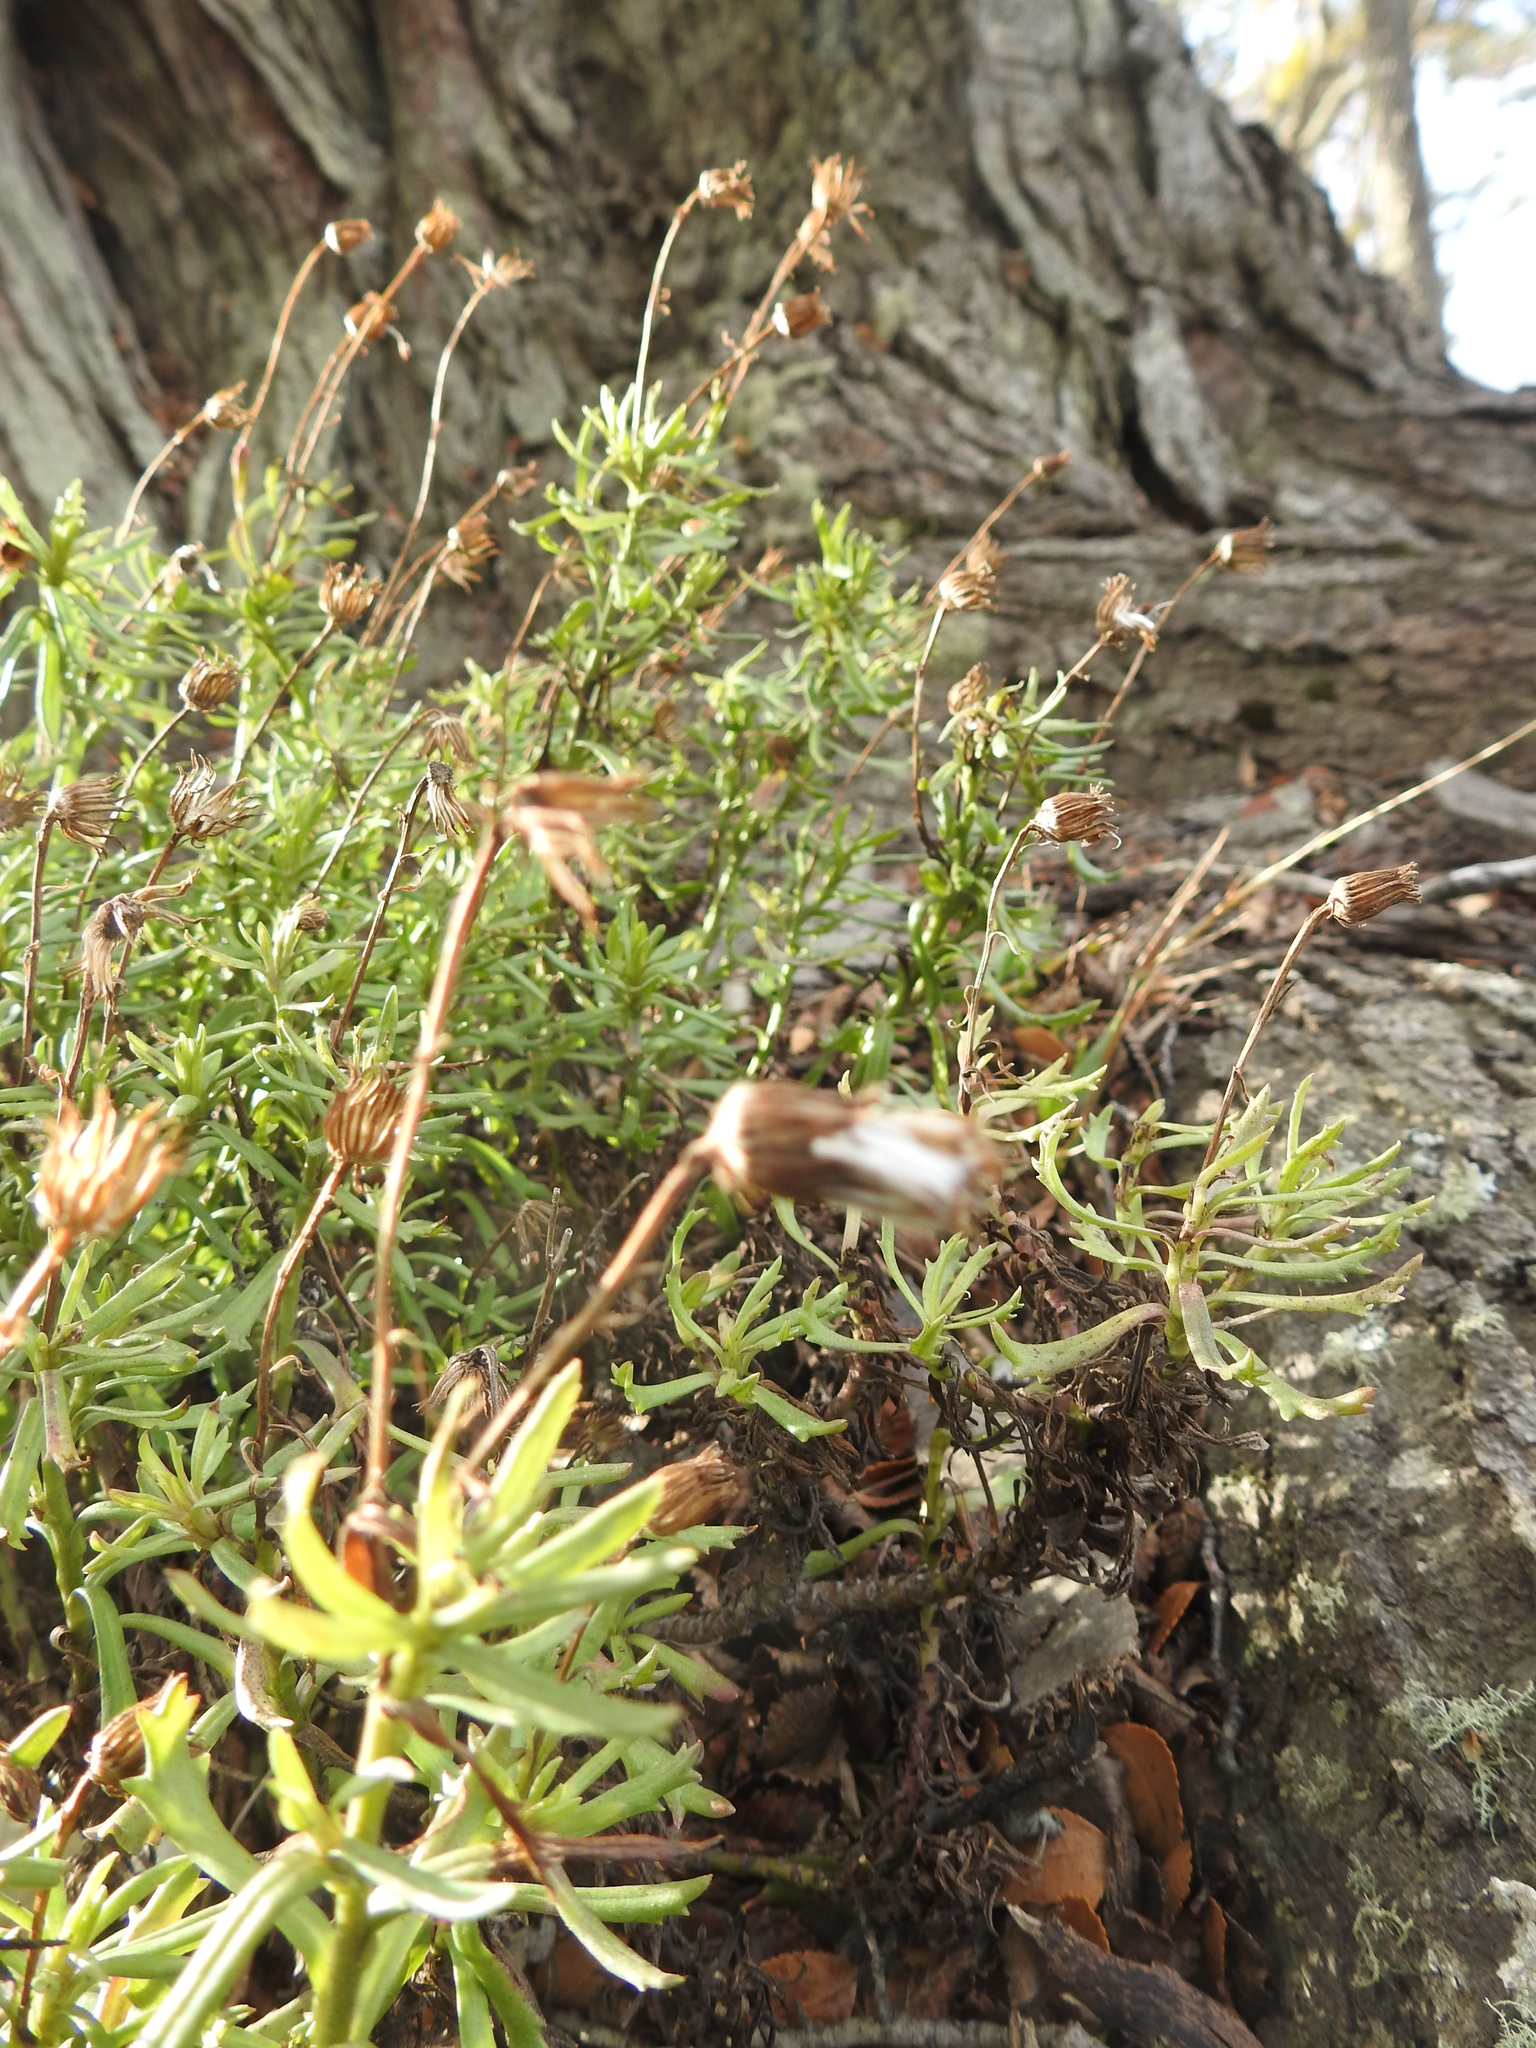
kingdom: Plantae
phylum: Tracheophyta
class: Magnoliopsida
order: Asterales
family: Asteraceae
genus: Senecio
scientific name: Senecio tricuspidatus
